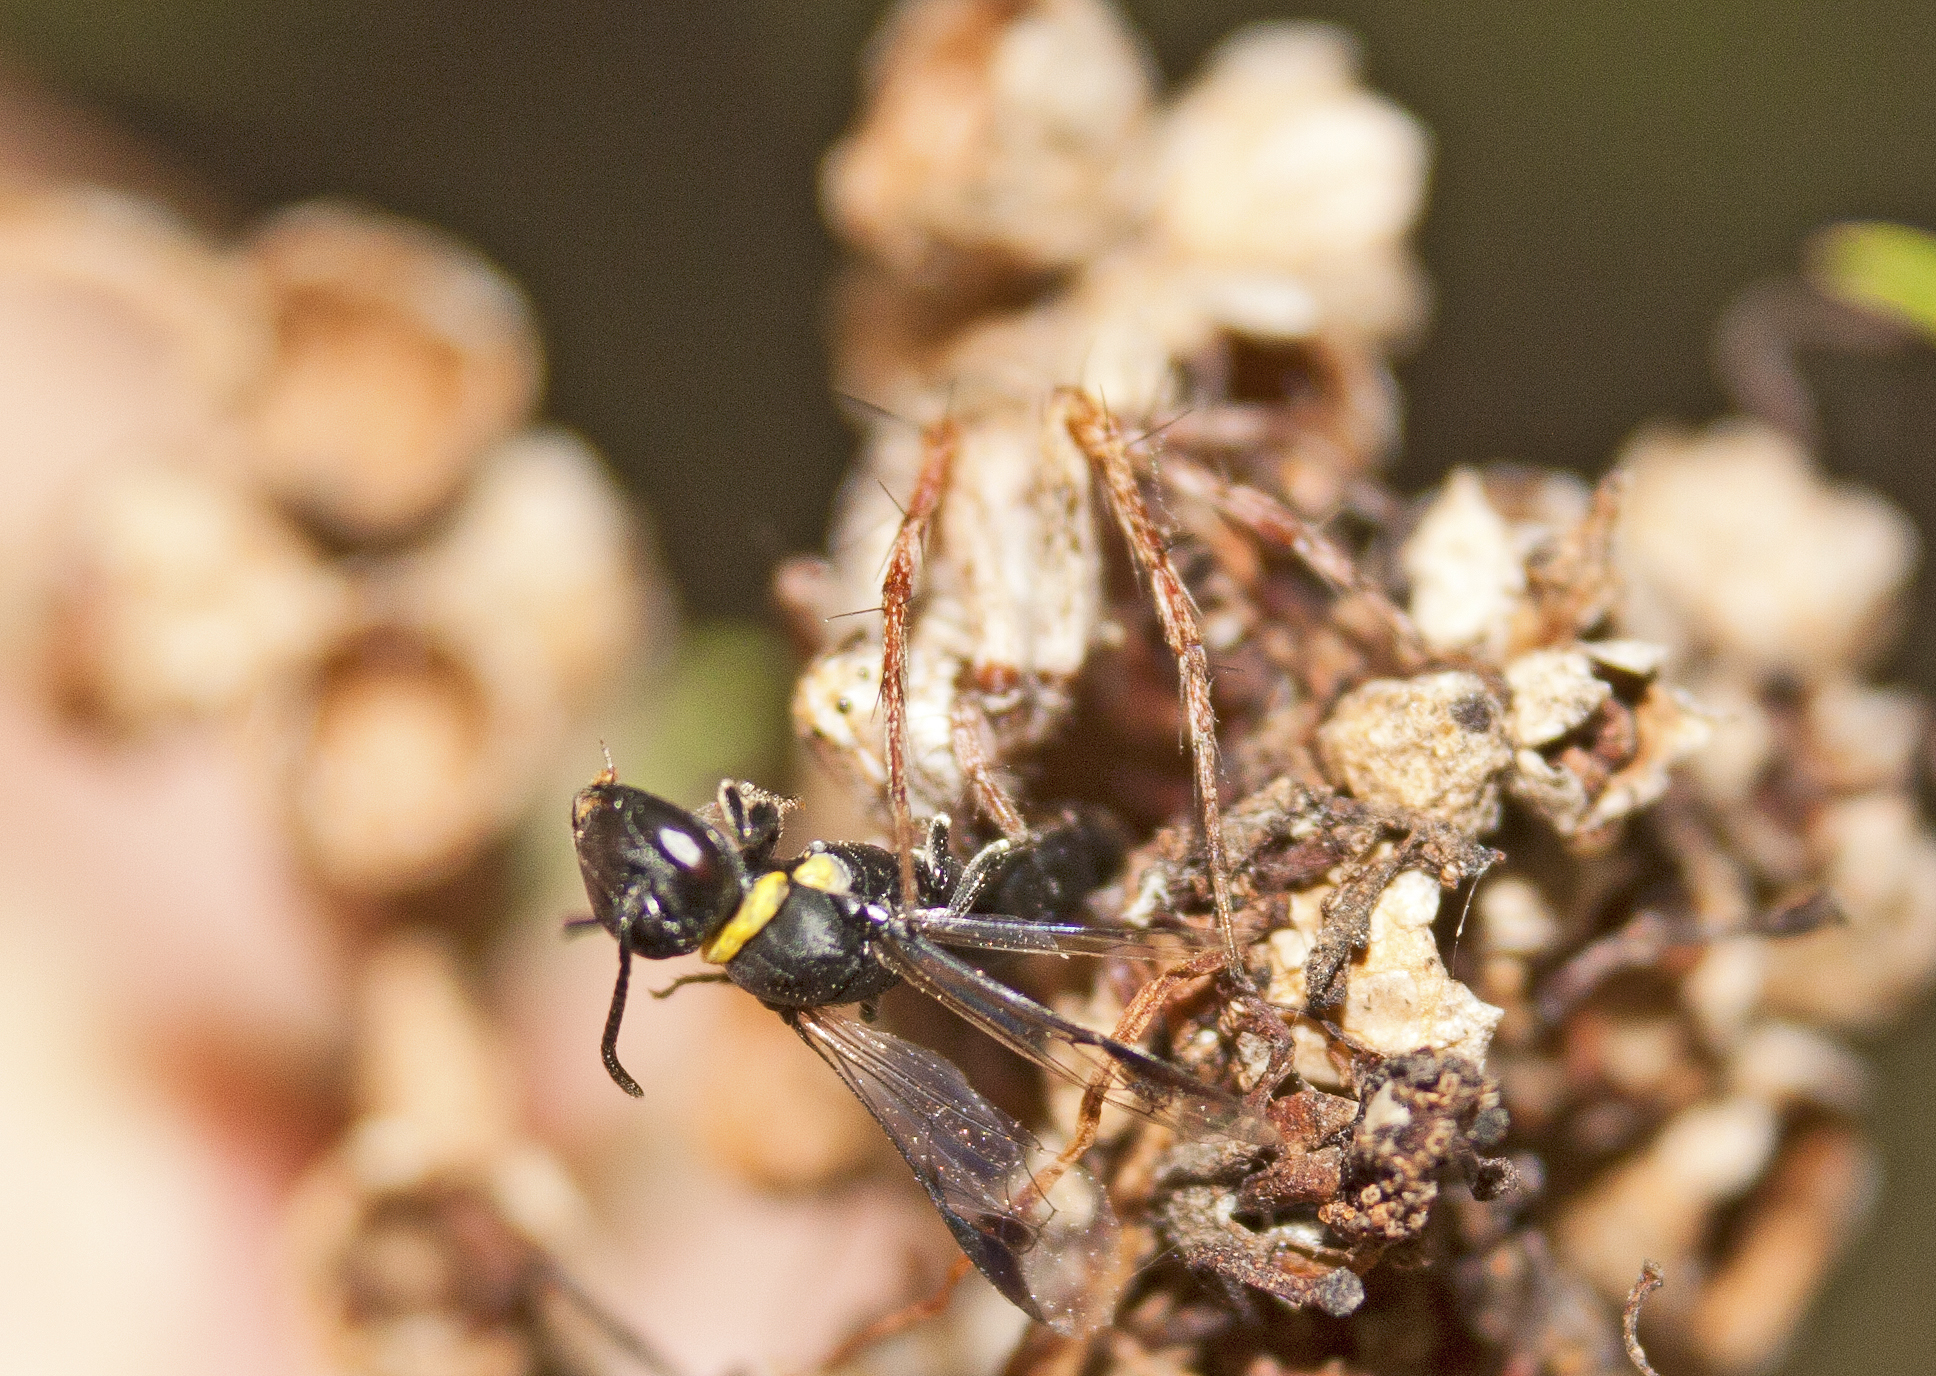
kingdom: Animalia
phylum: Arthropoda
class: Insecta
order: Hymenoptera
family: Colletidae
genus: Hylaeus
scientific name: Hylaeus primulipictus
